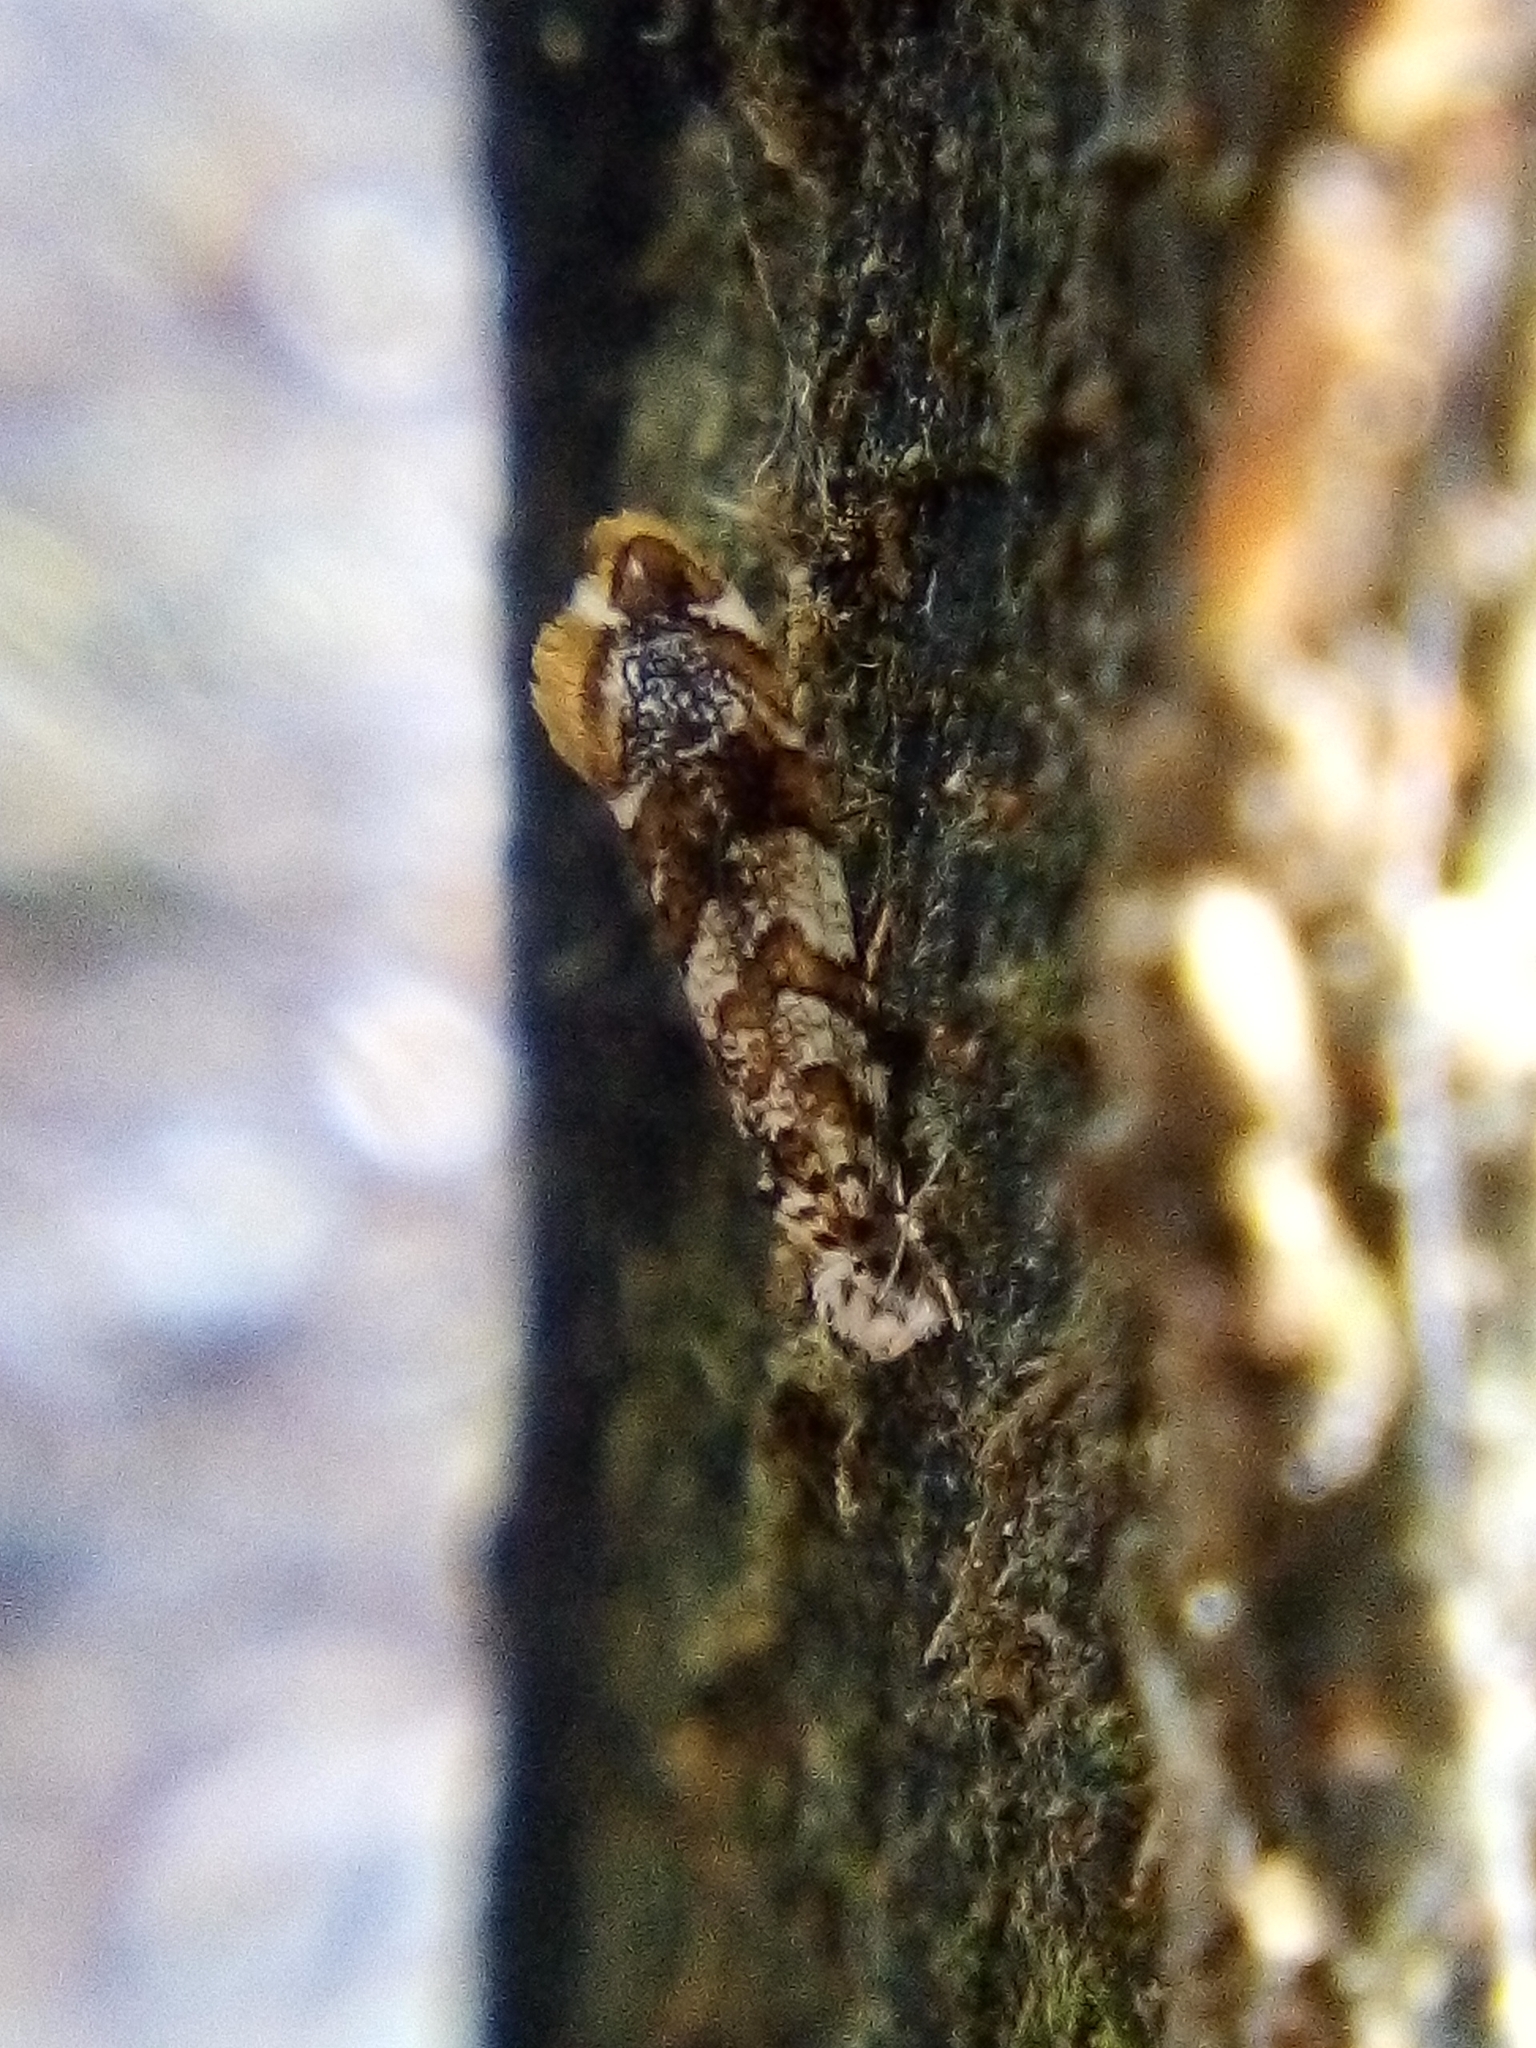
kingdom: Animalia
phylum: Arthropoda
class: Insecta
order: Lepidoptera
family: Tineidae
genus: Eschatotypa
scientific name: Eschatotypa derogatella
